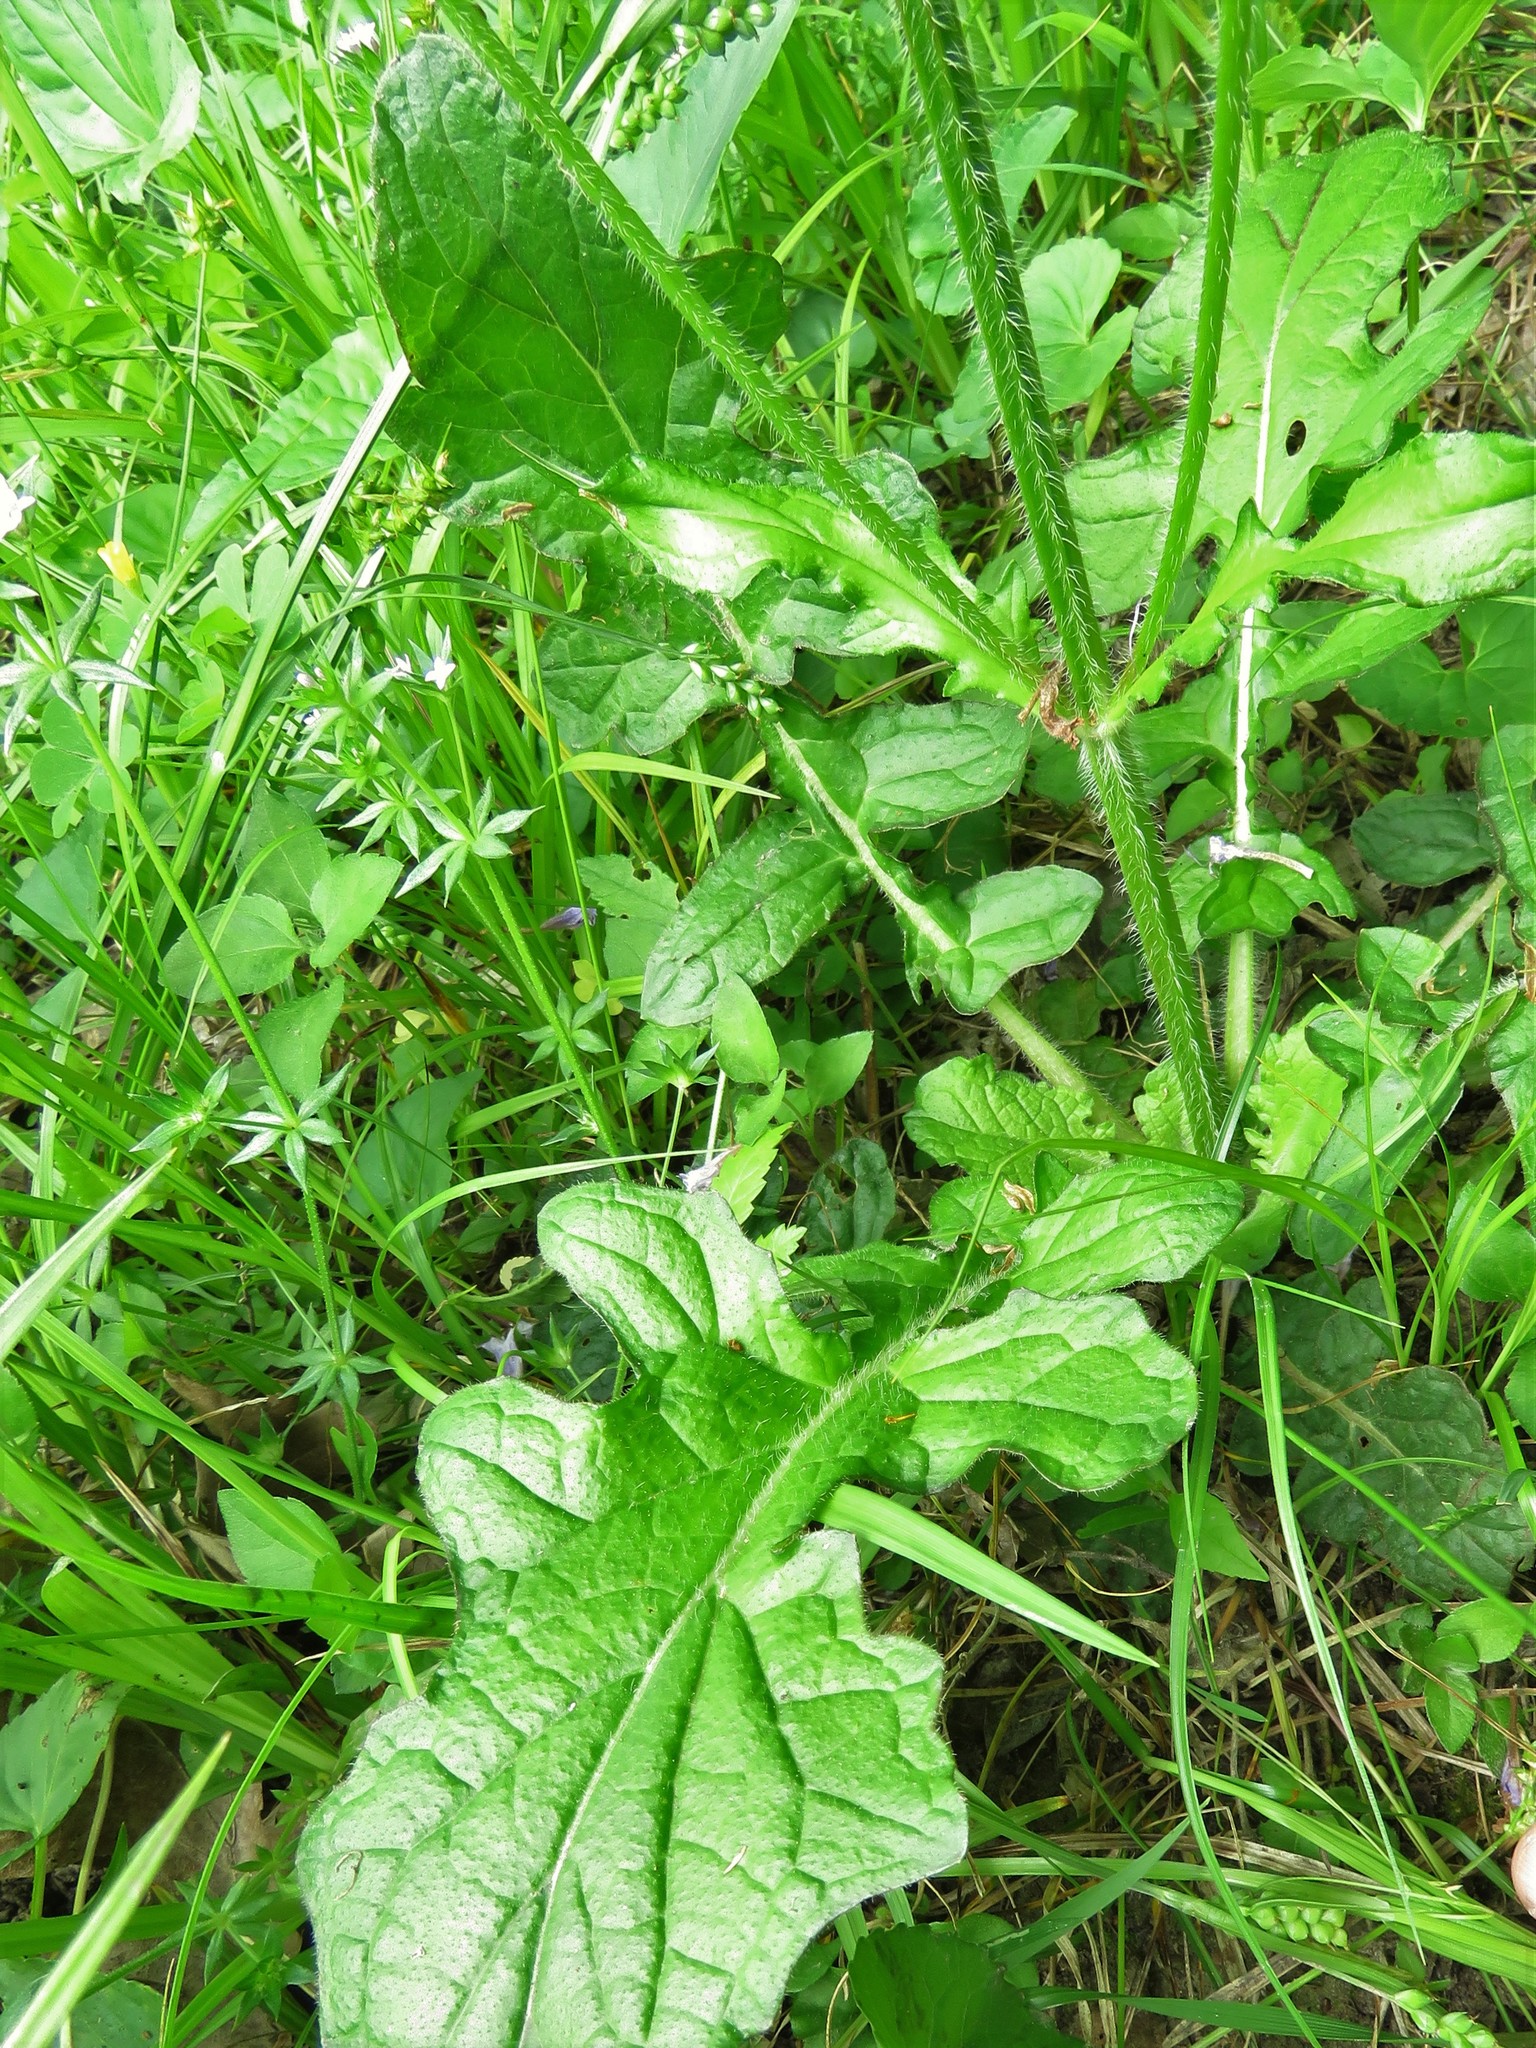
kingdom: Plantae
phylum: Tracheophyta
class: Magnoliopsida
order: Lamiales
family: Lamiaceae
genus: Salvia
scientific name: Salvia lyrata
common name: Cancerweed
